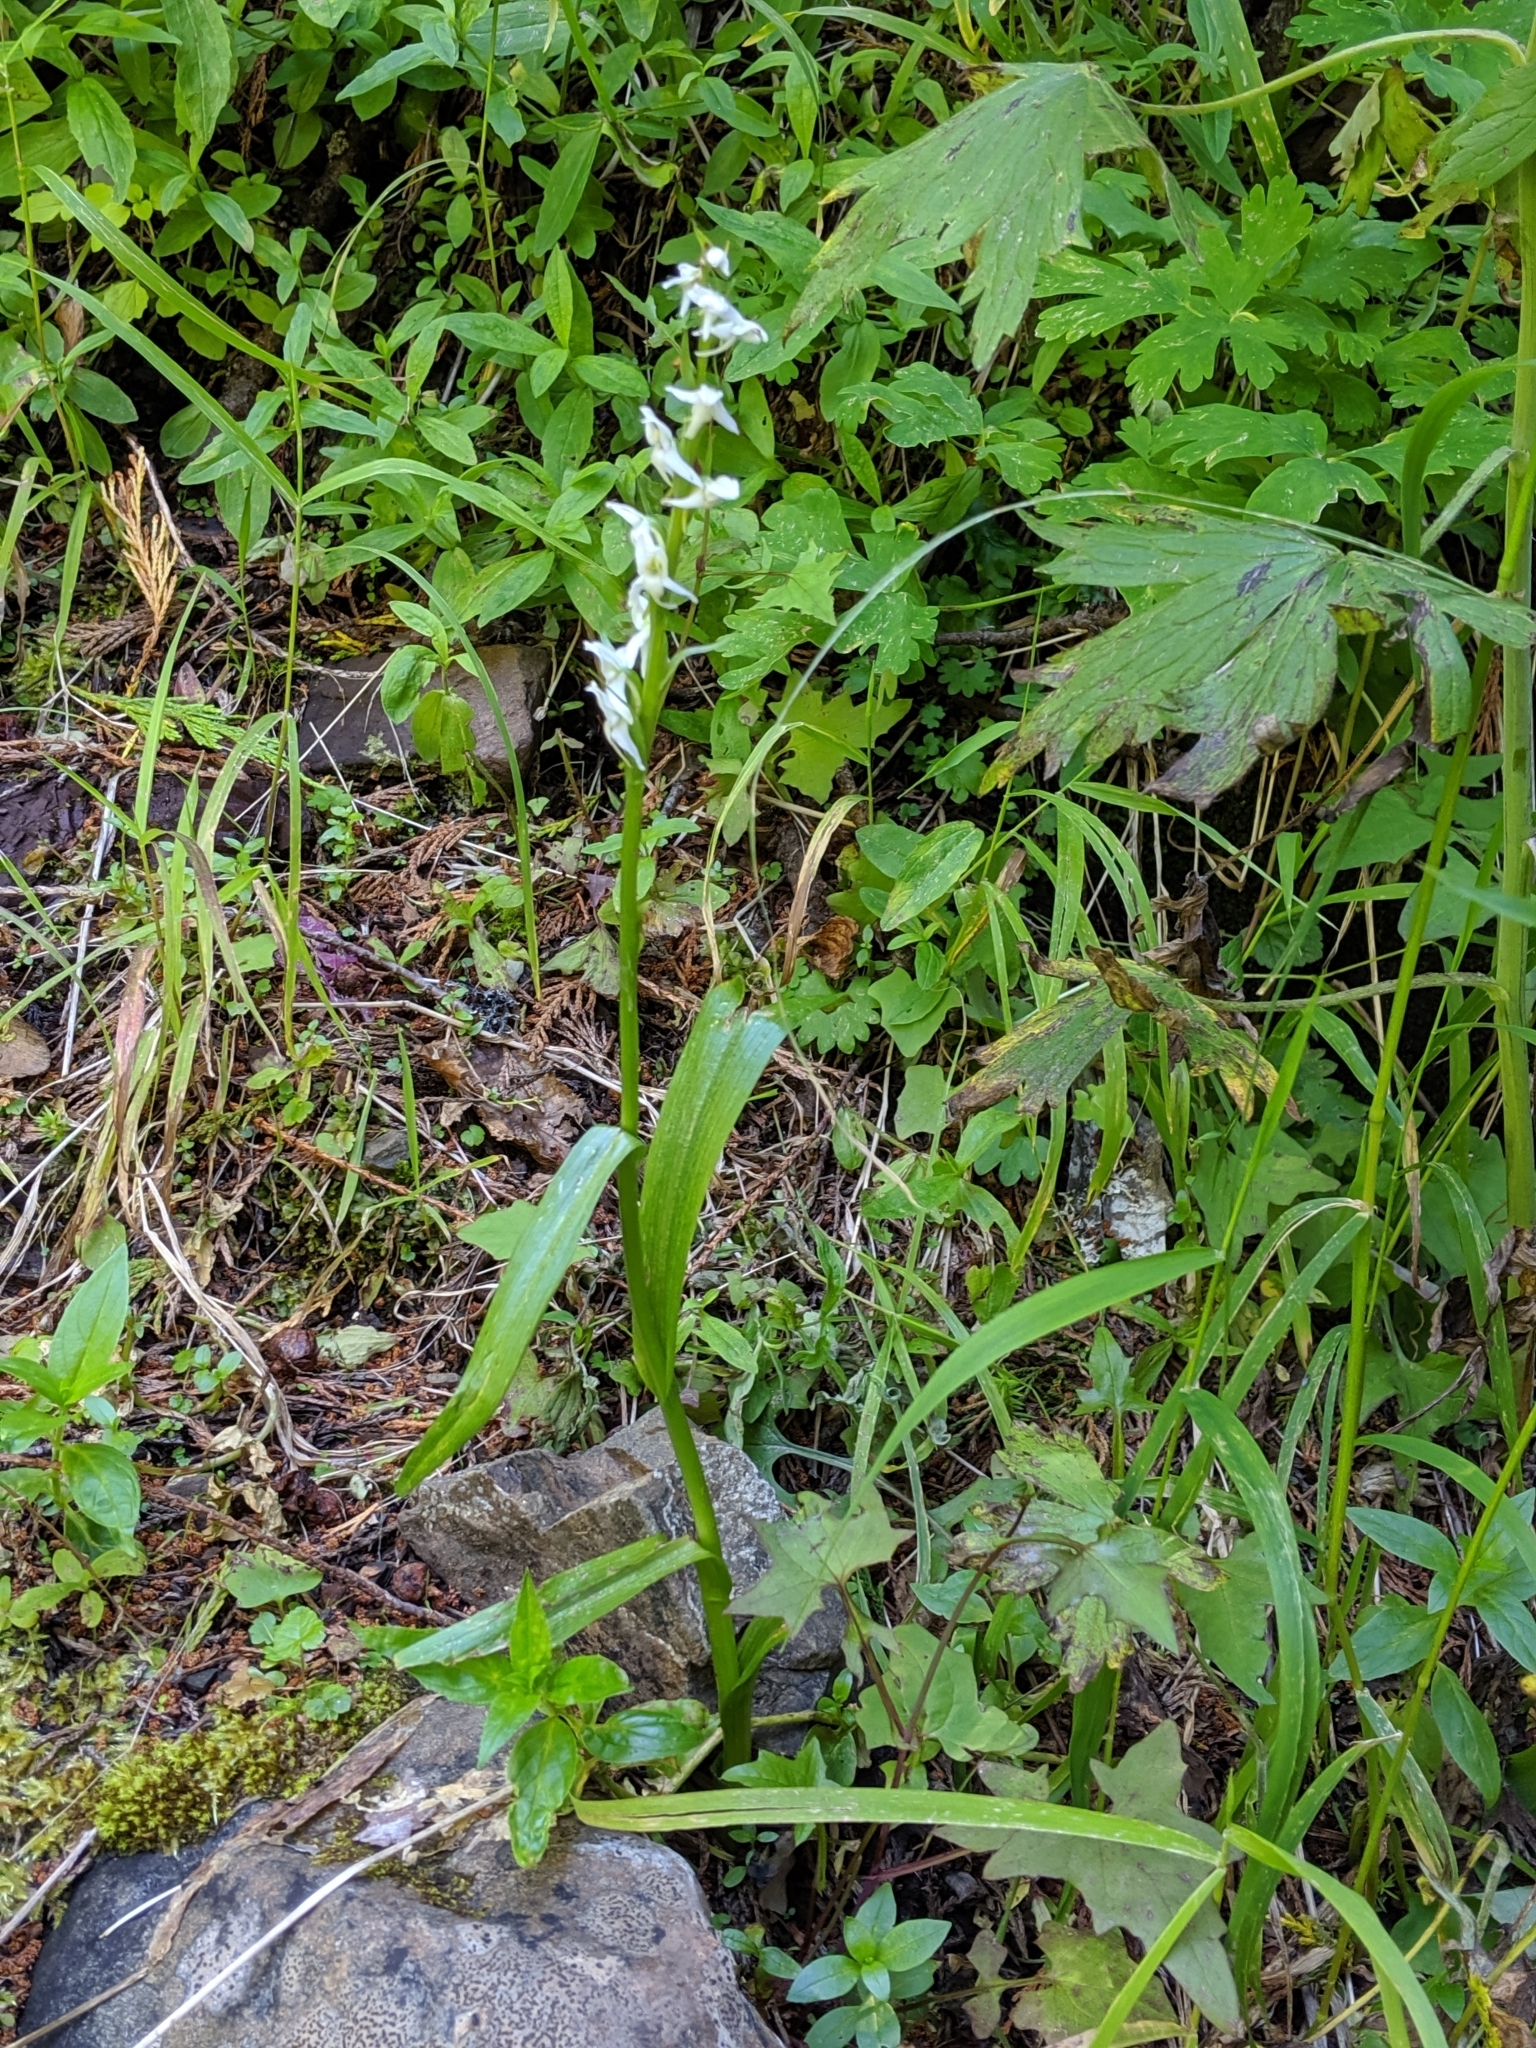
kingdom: Plantae
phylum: Tracheophyta
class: Liliopsida
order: Asparagales
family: Orchidaceae
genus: Platanthera
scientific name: Platanthera dilatata
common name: Bog candles
